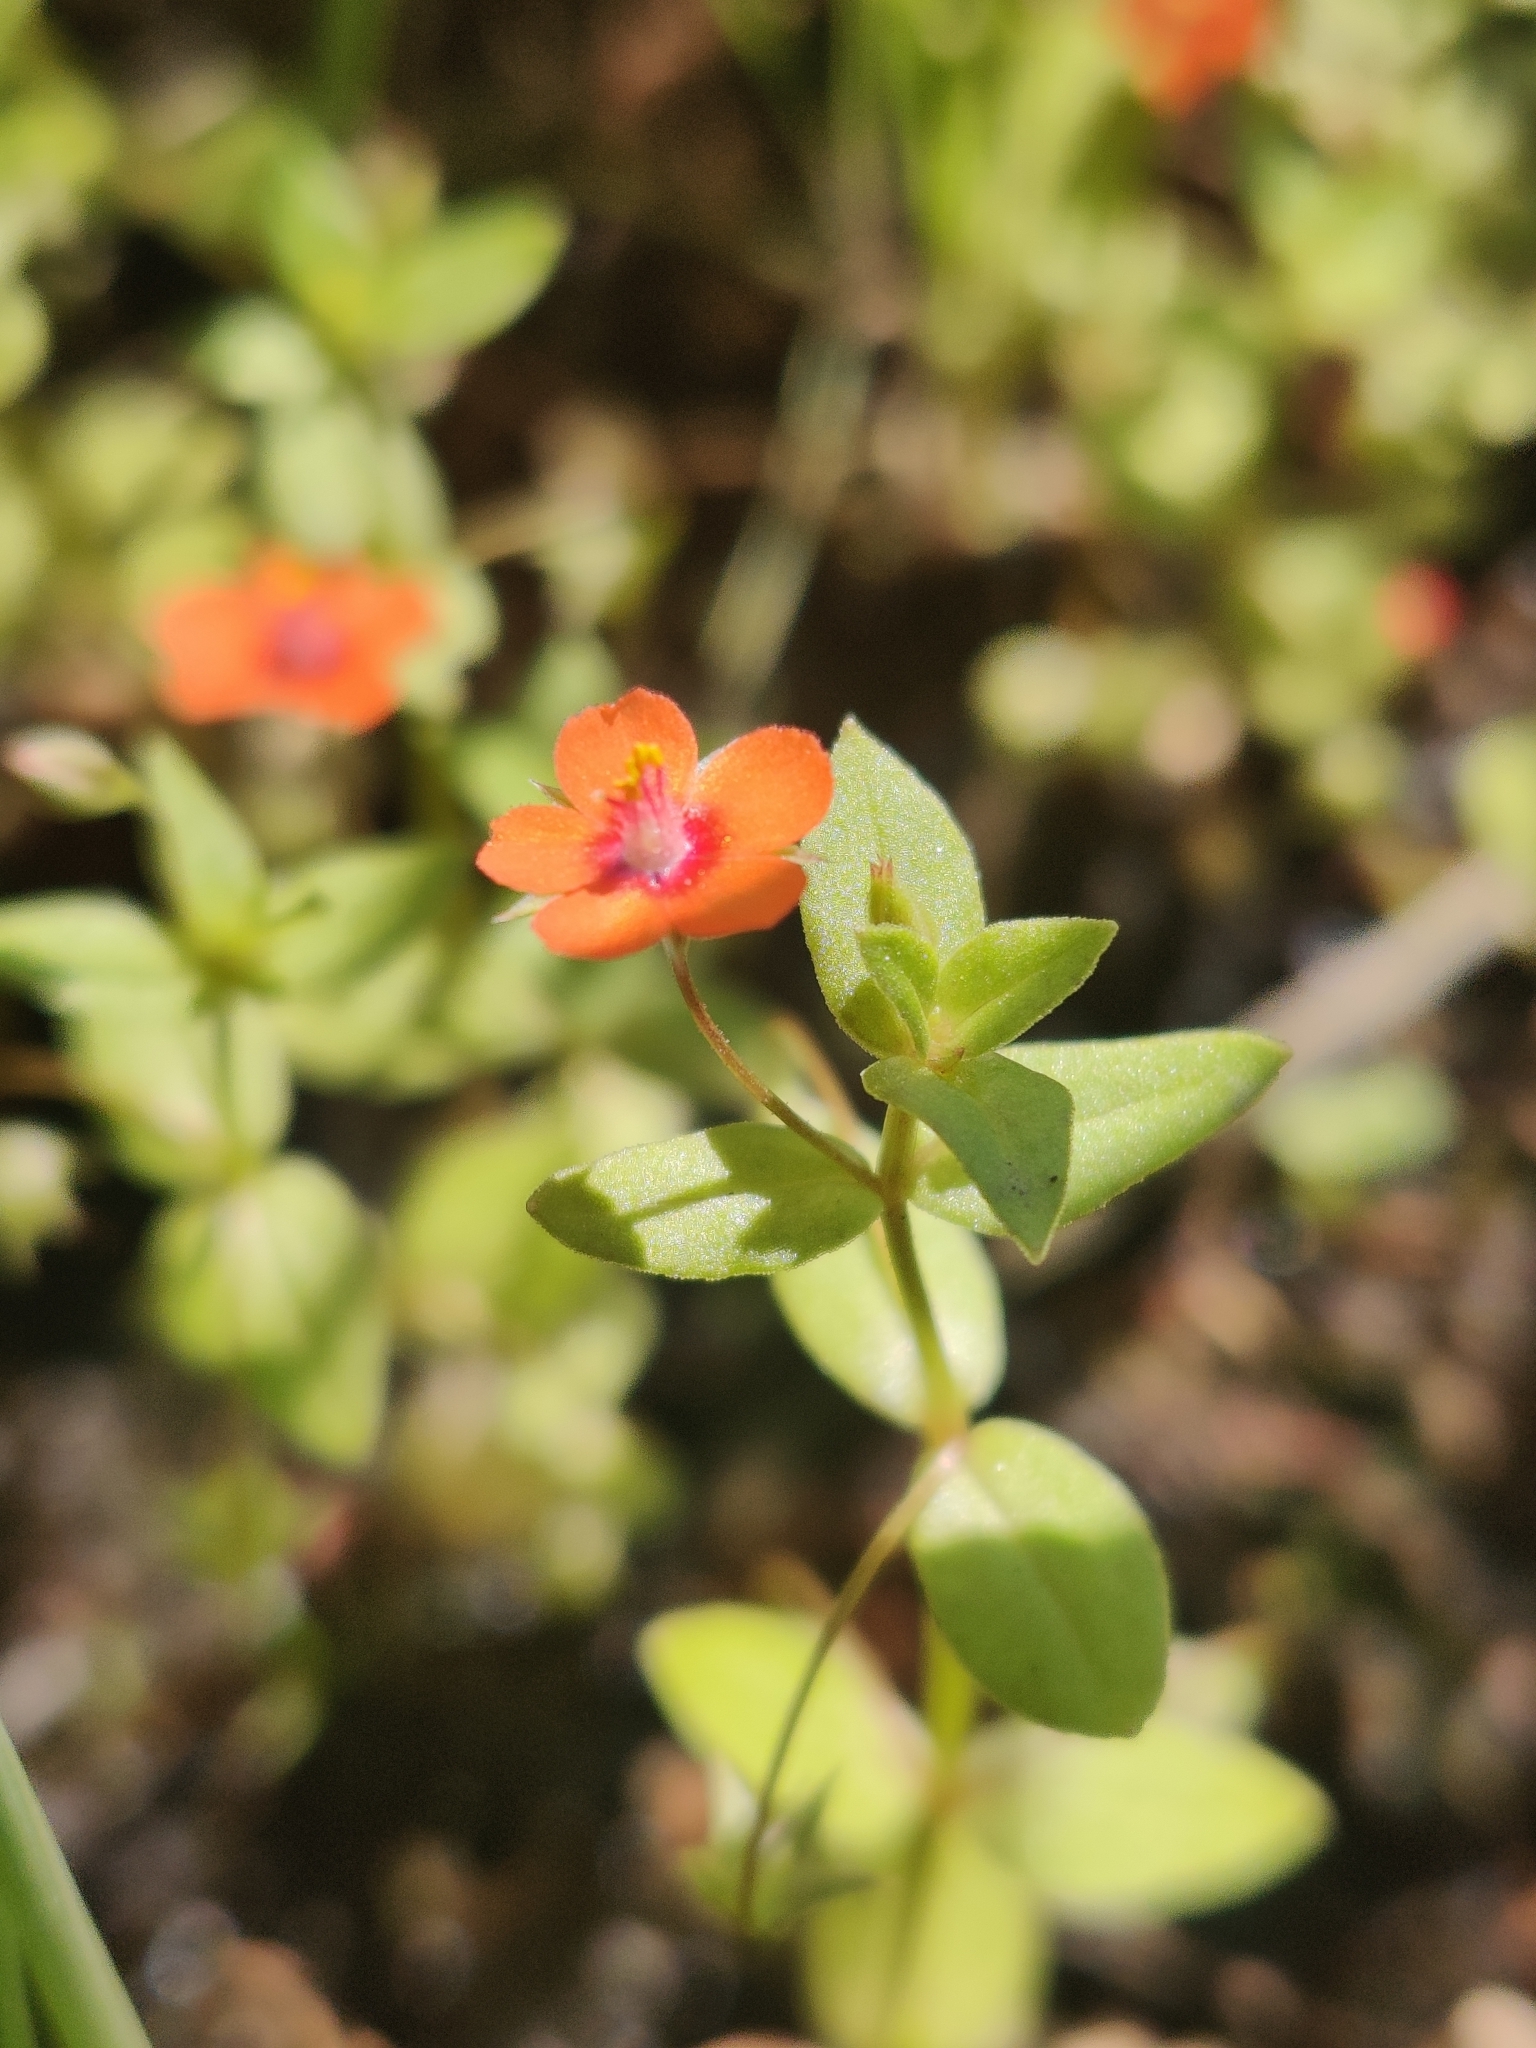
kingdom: Plantae
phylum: Tracheophyta
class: Magnoliopsida
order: Ericales
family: Primulaceae
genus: Lysimachia
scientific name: Lysimachia arvensis
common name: Scarlet pimpernel
